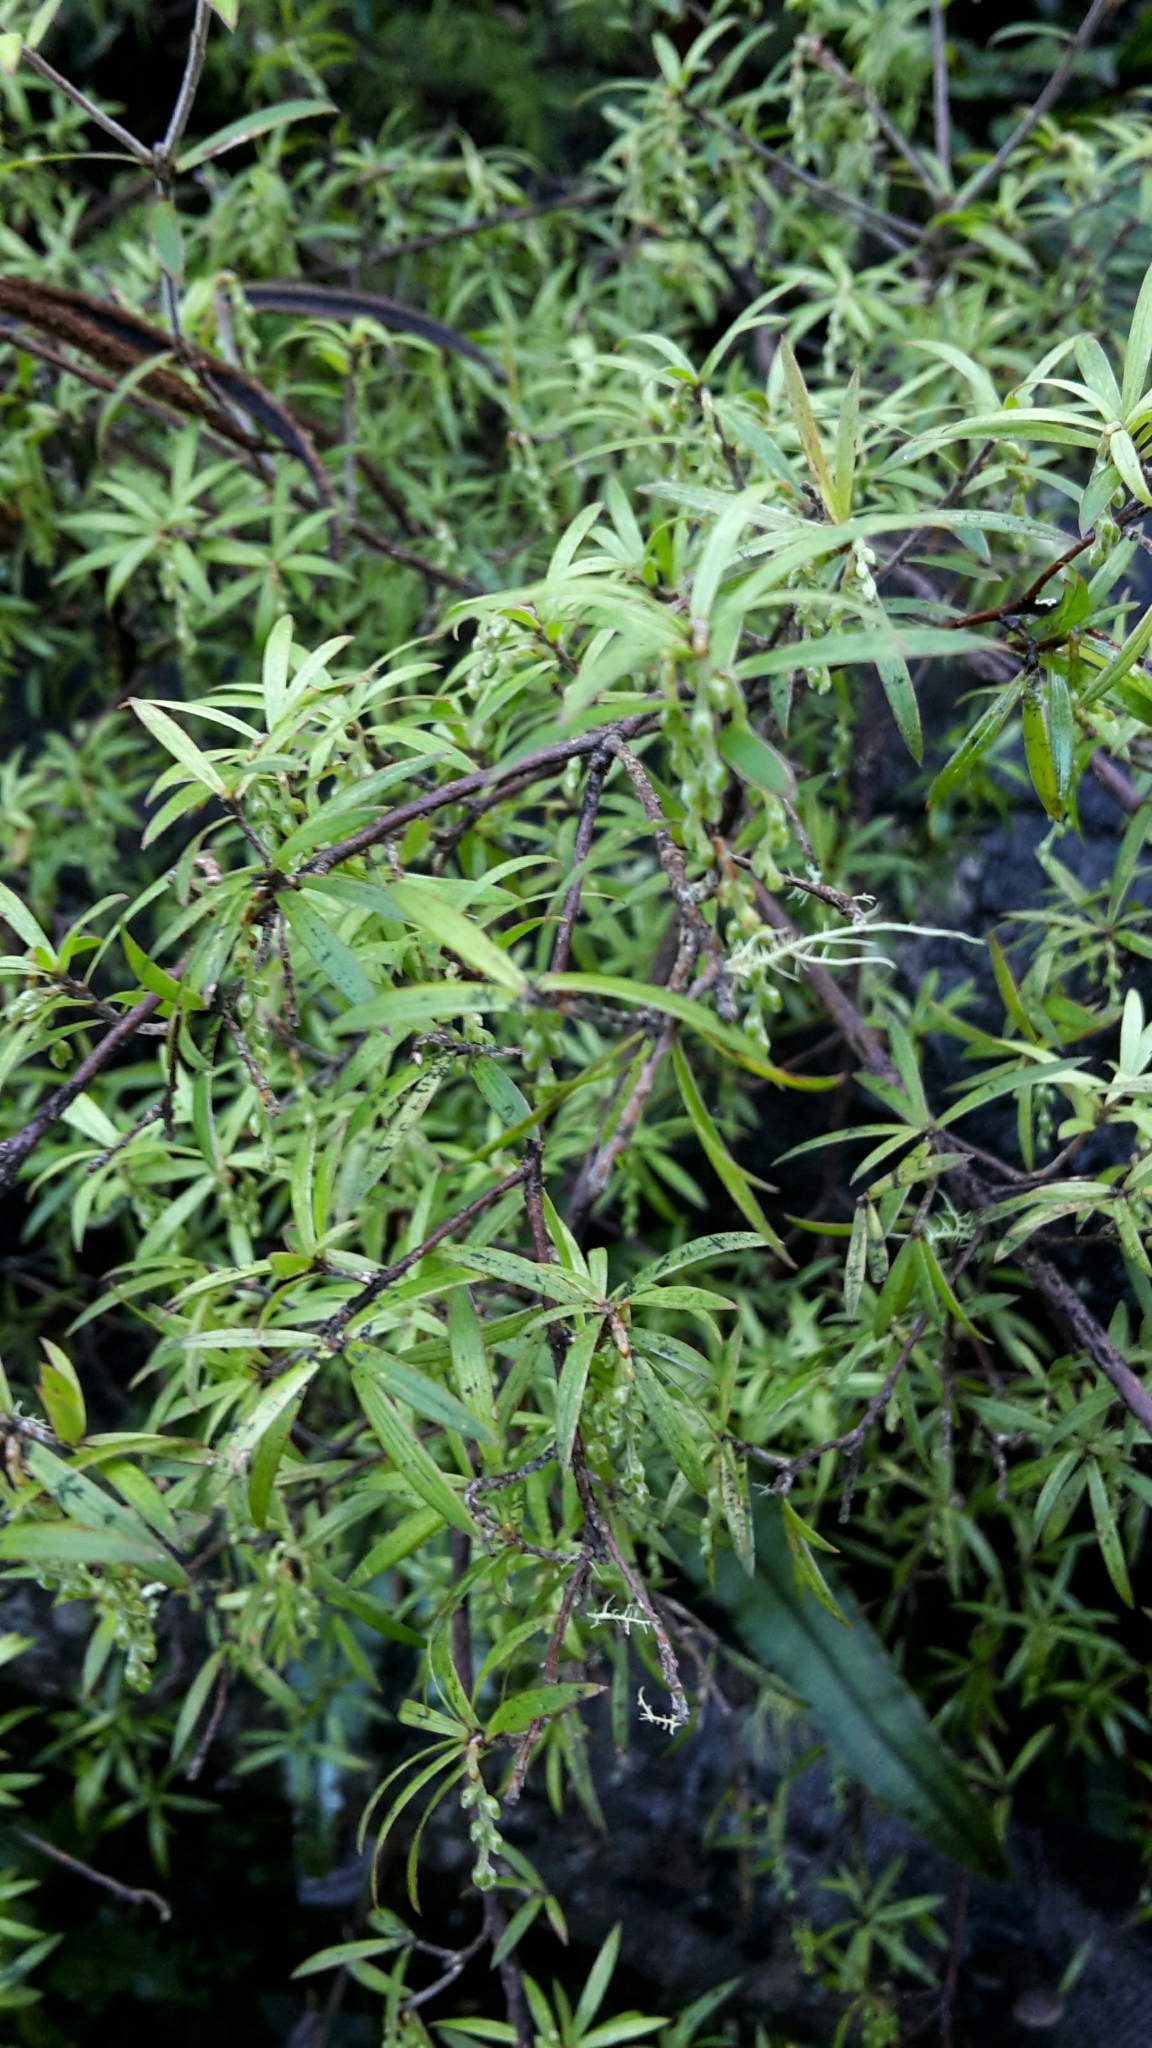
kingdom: Plantae
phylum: Tracheophyta
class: Magnoliopsida
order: Ericales
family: Ericaceae
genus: Leucopogon
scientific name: Leucopogon fasciculatus
